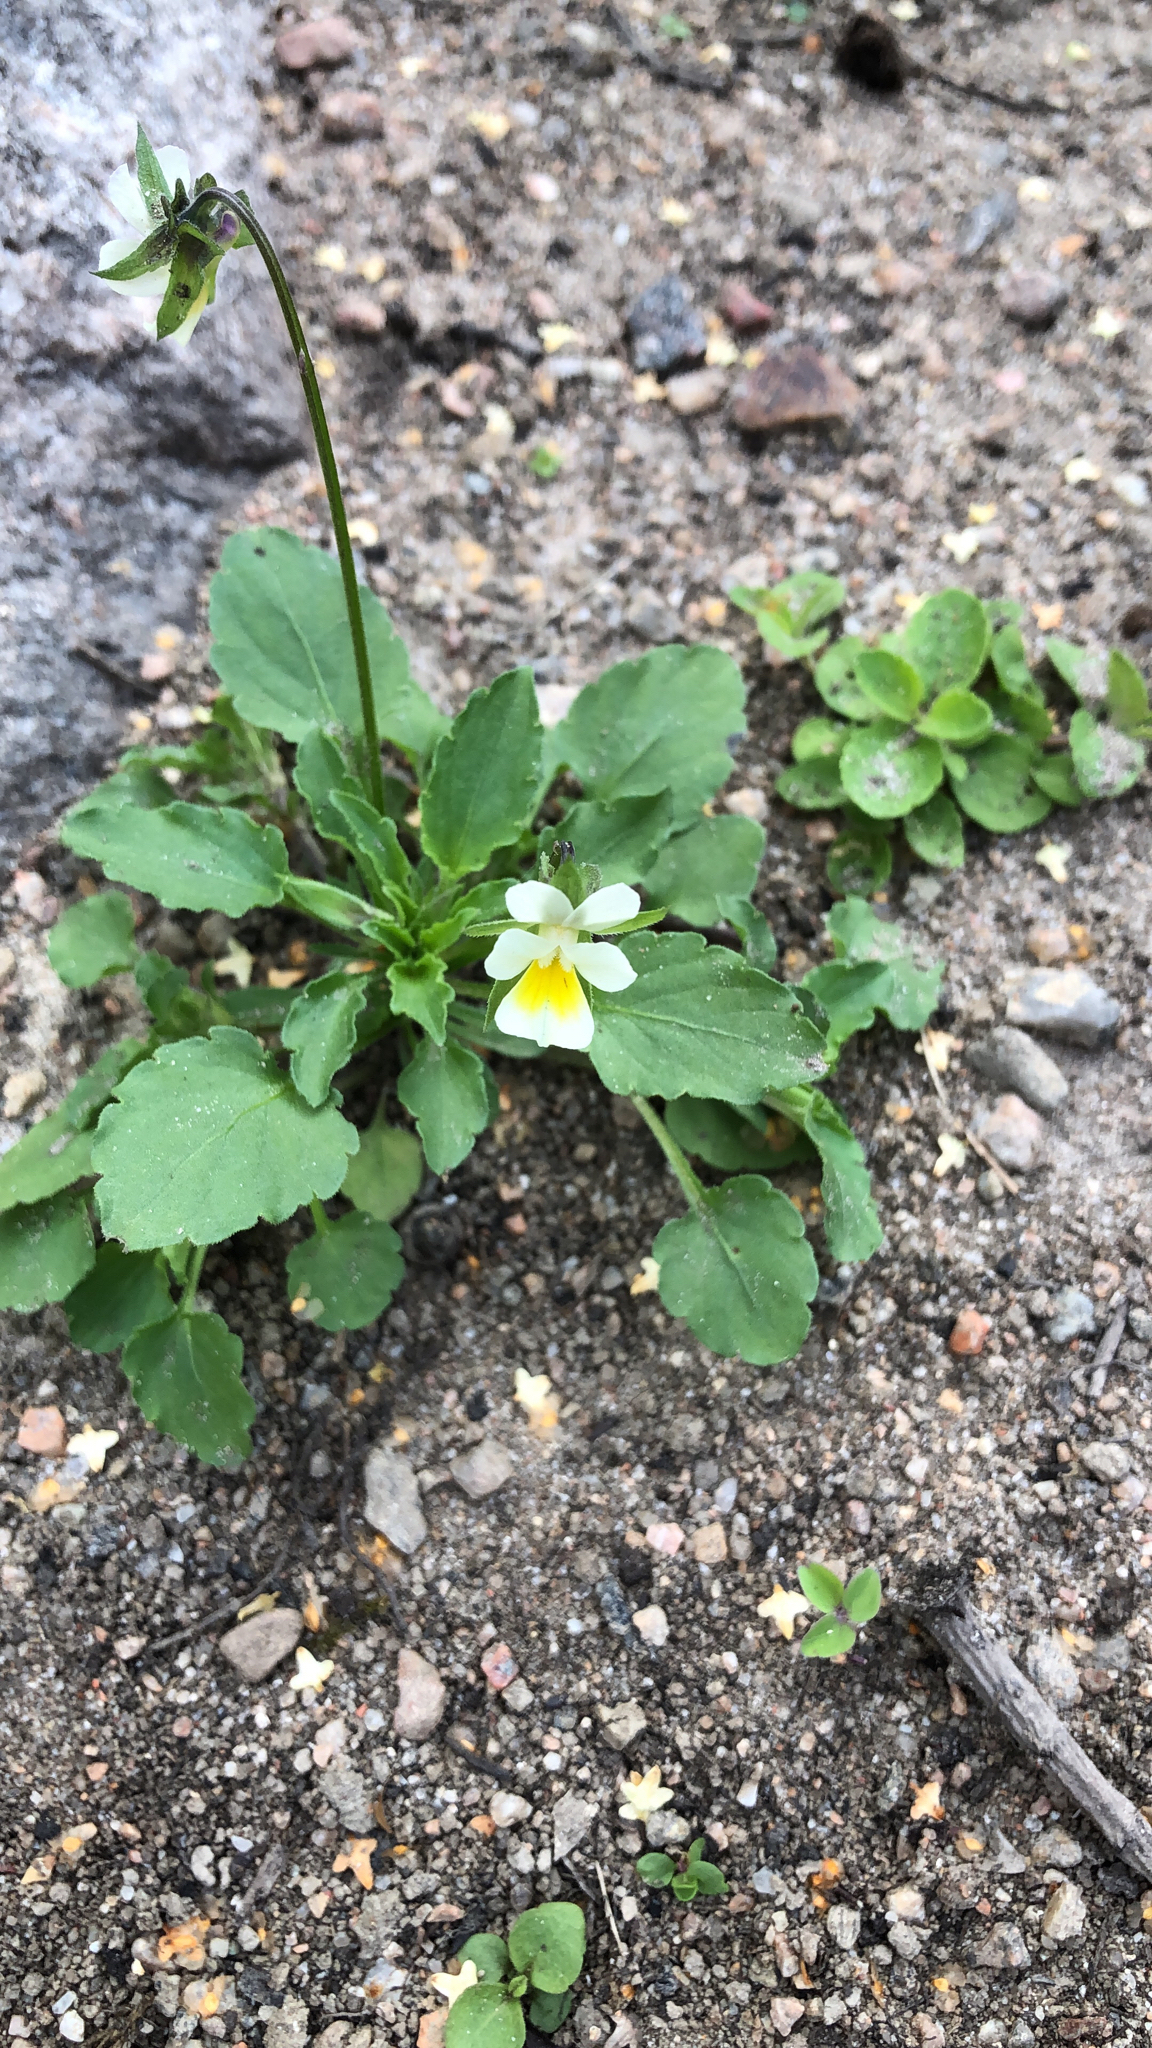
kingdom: Plantae
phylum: Tracheophyta
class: Magnoliopsida
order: Malpighiales
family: Violaceae
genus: Viola
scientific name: Viola arvensis
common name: Field pansy
